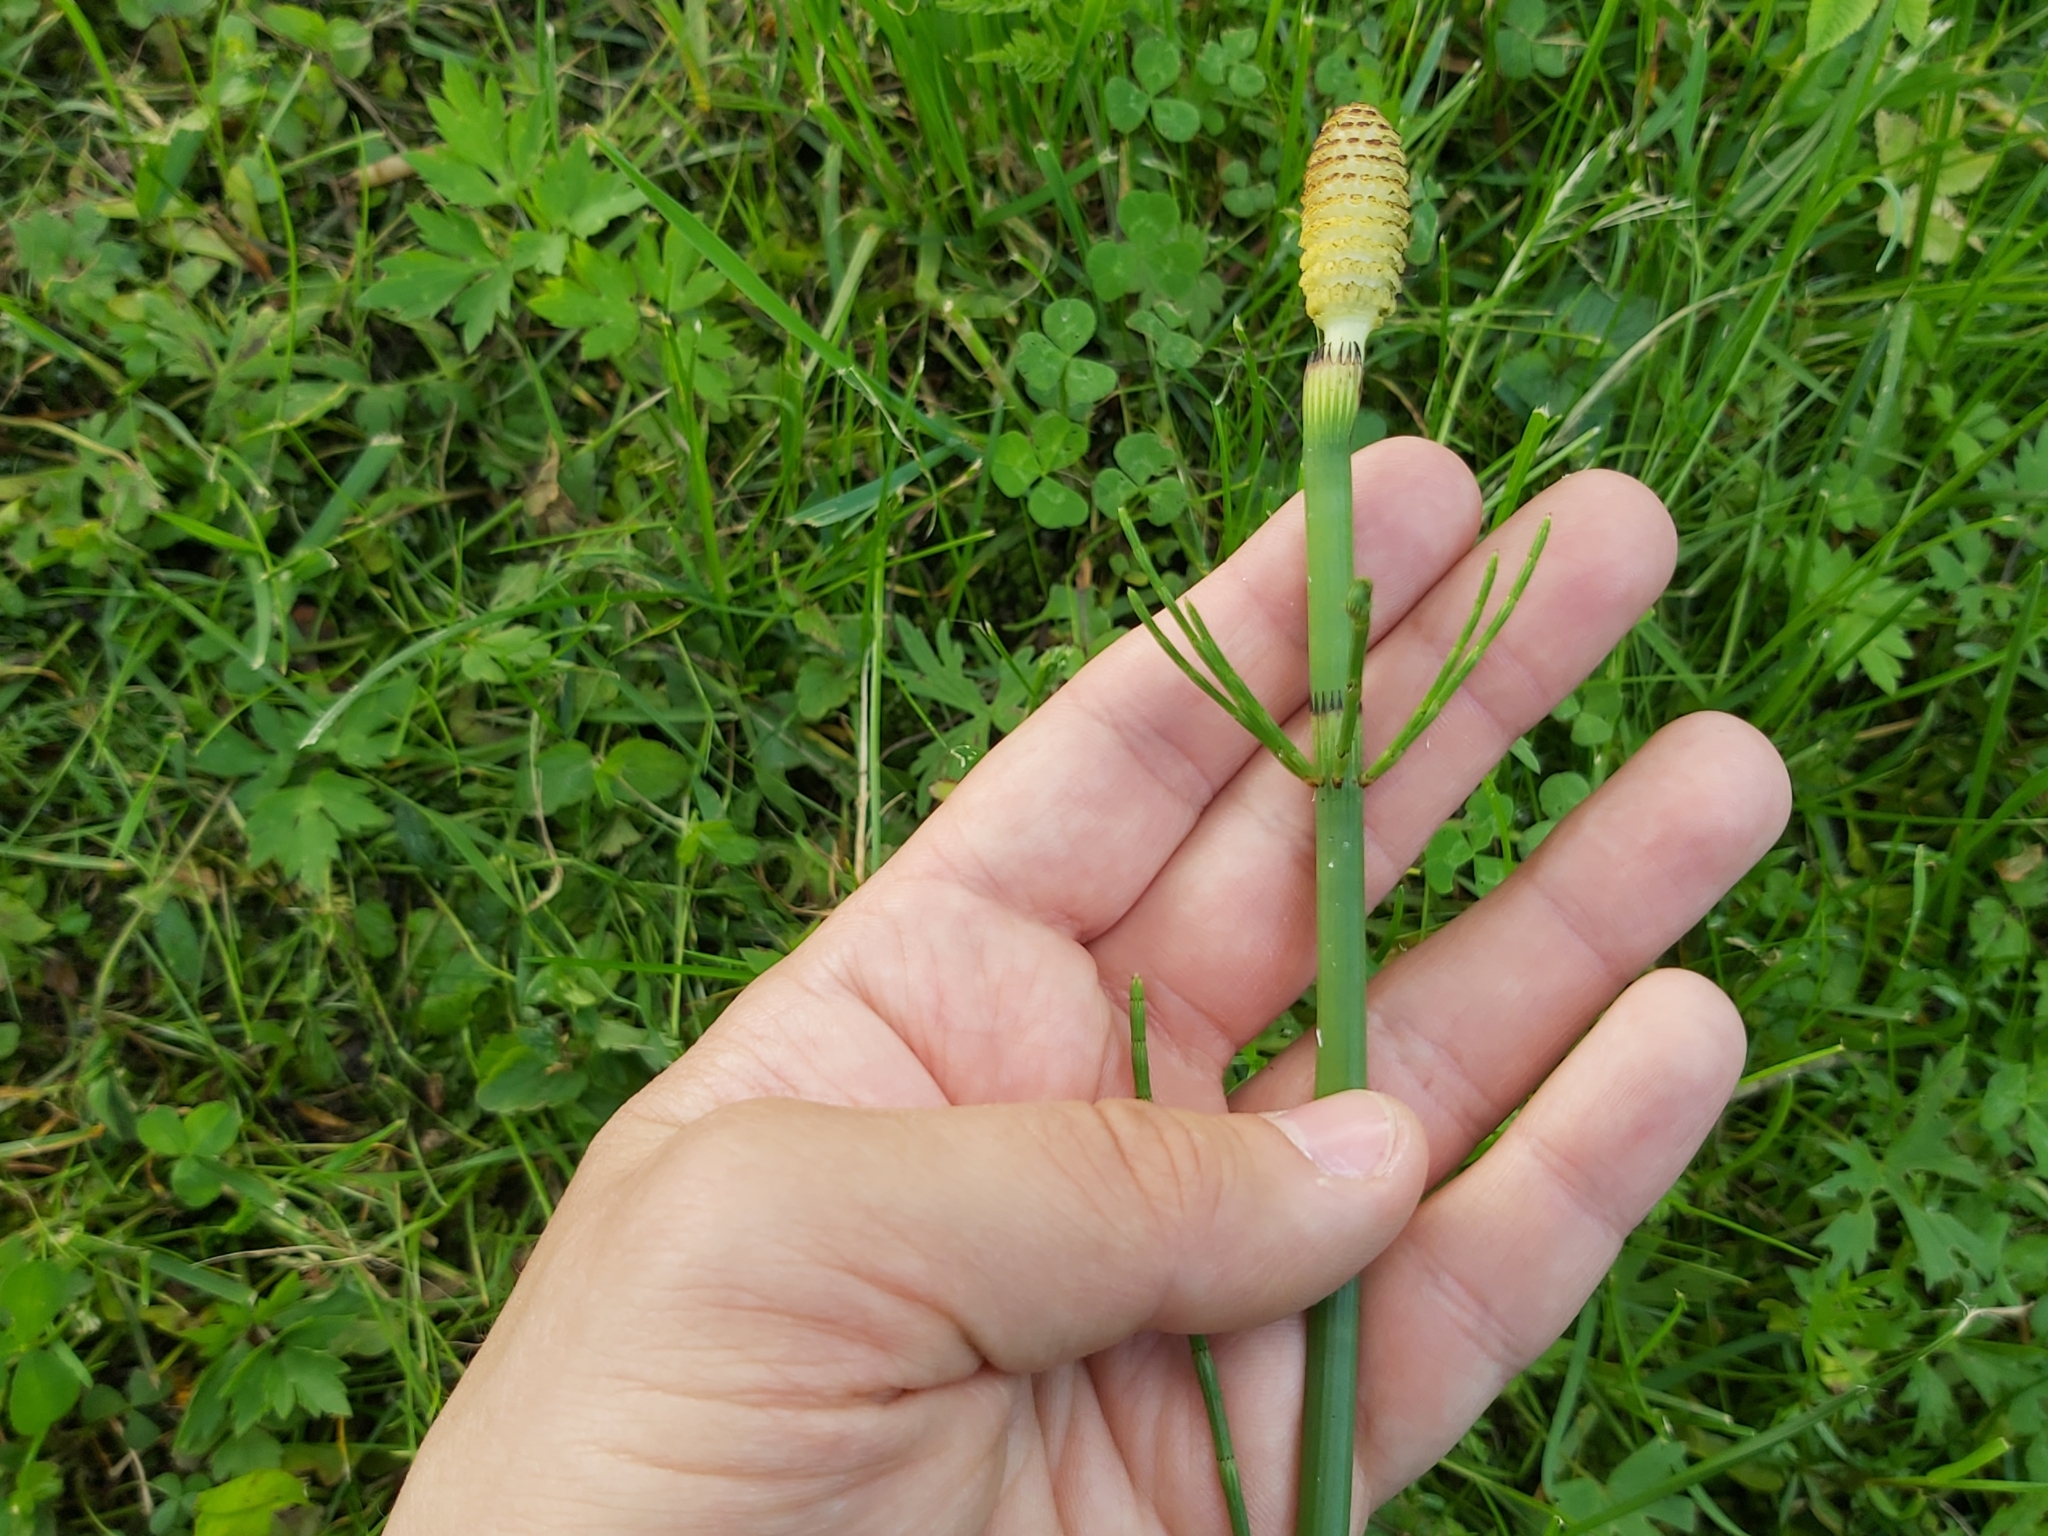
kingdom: Plantae
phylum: Tracheophyta
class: Polypodiopsida
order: Equisetales
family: Equisetaceae
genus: Equisetum
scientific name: Equisetum fluviatile
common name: Water horsetail
